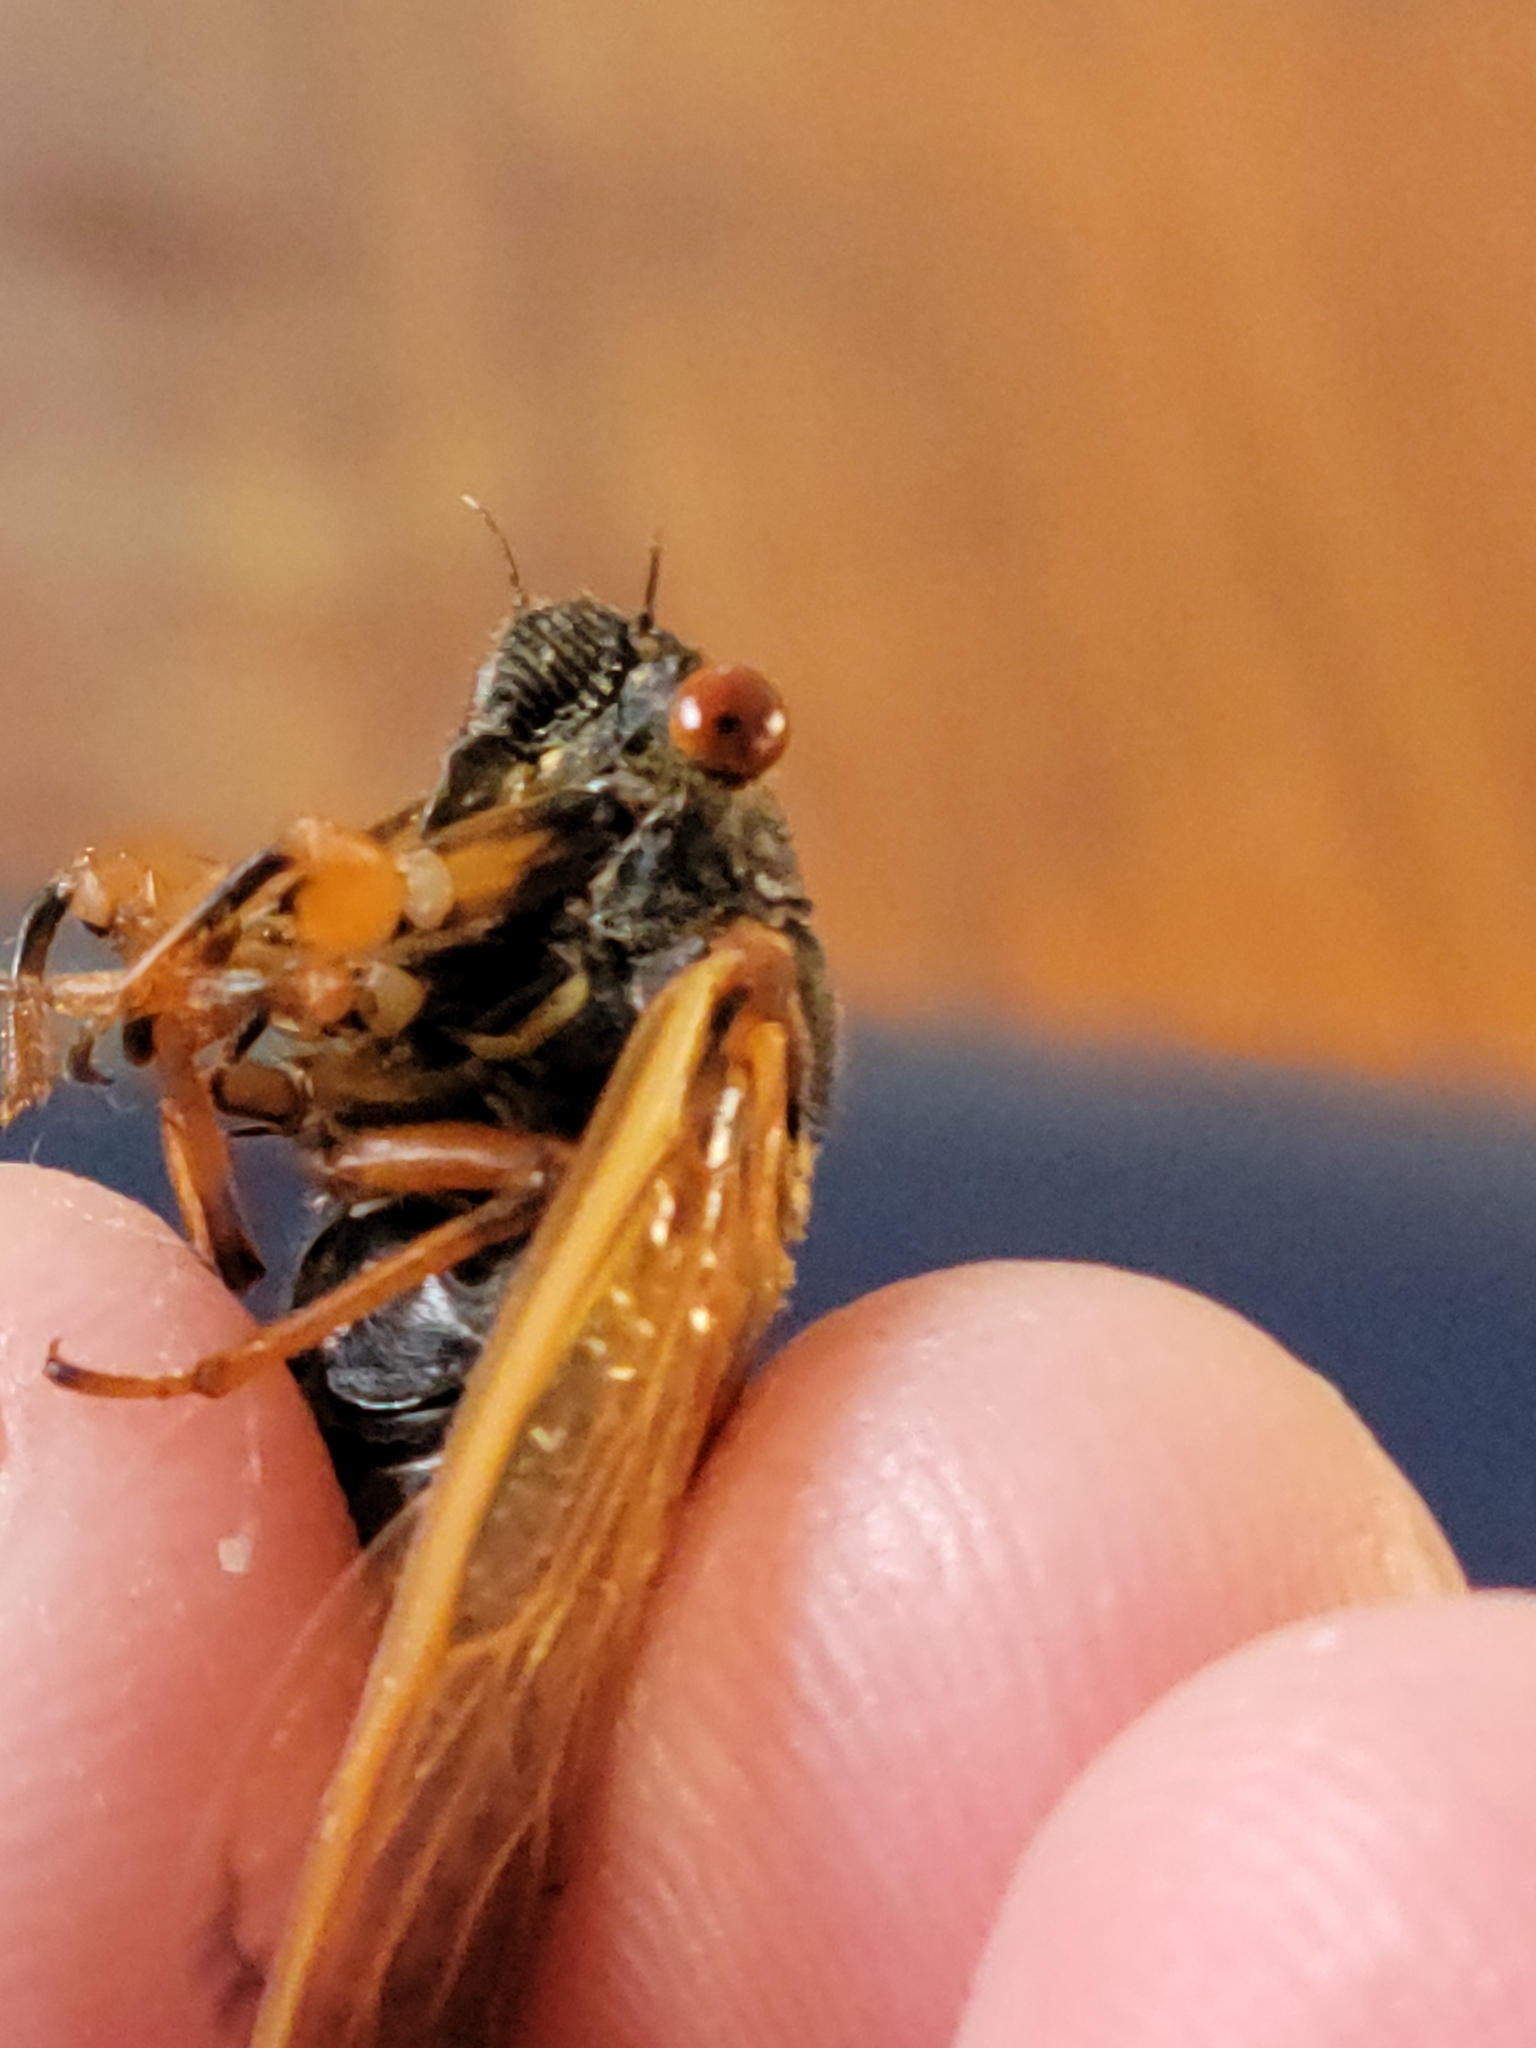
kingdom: Animalia
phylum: Arthropoda
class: Insecta
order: Hemiptera
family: Cicadidae
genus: Magicicada
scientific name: Magicicada cassini
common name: Cassin's 17-year cicada
